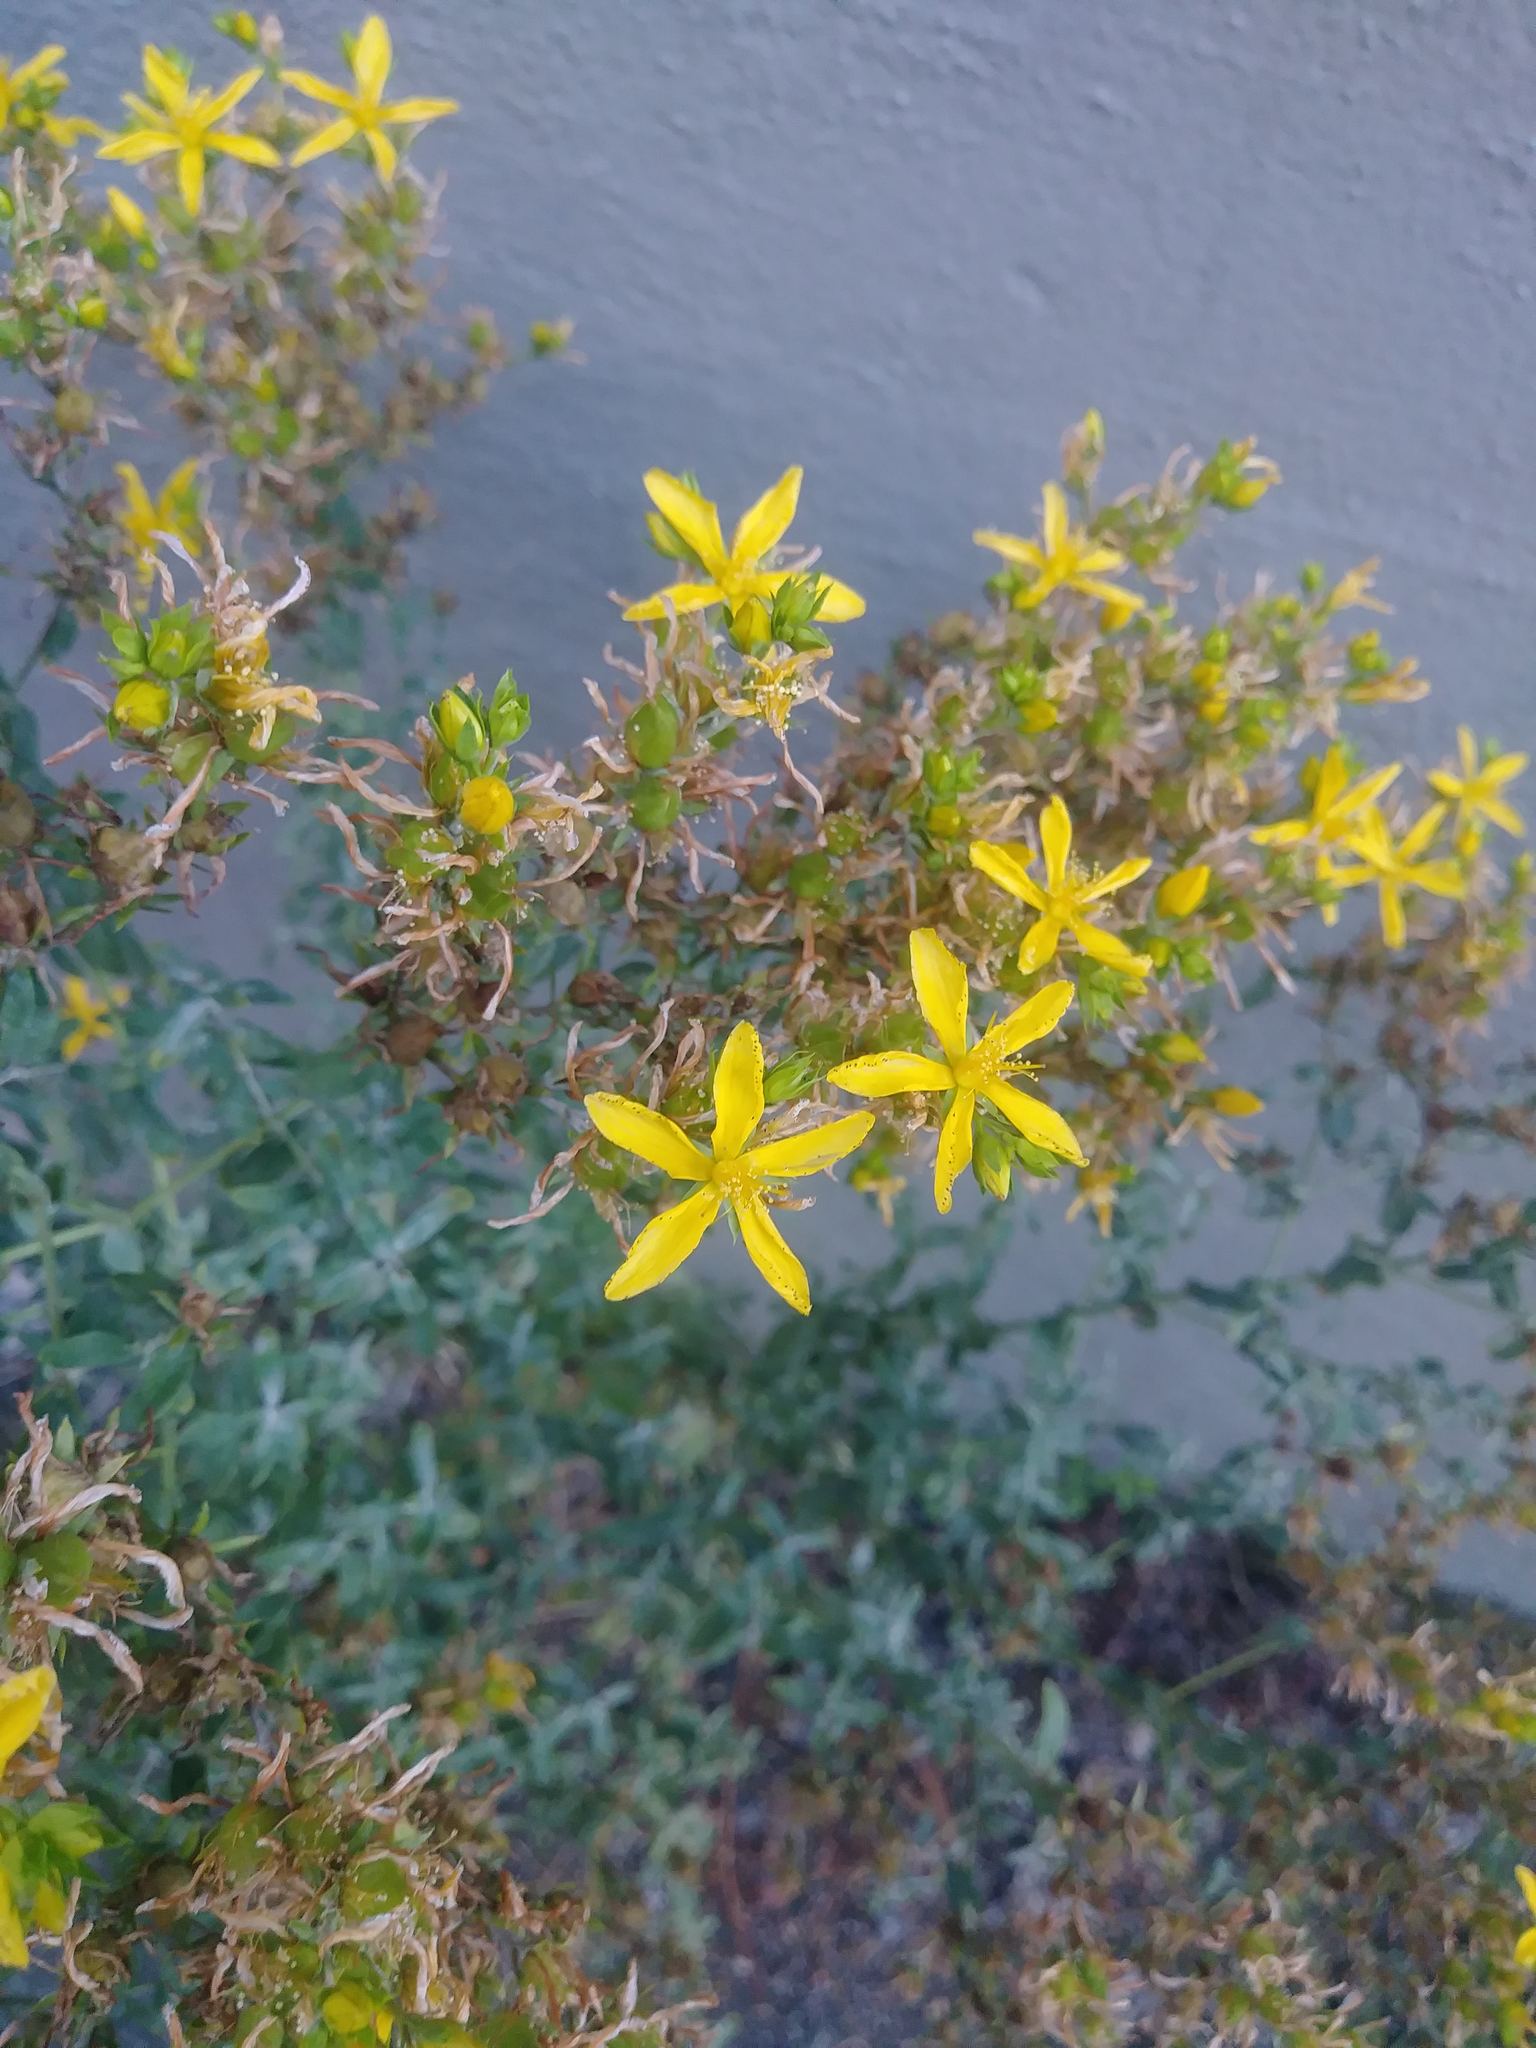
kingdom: Plantae
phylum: Tracheophyta
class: Magnoliopsida
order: Malpighiales
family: Hypericaceae
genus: Hypericum
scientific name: Hypericum perforatum
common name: Common st. johnswort
